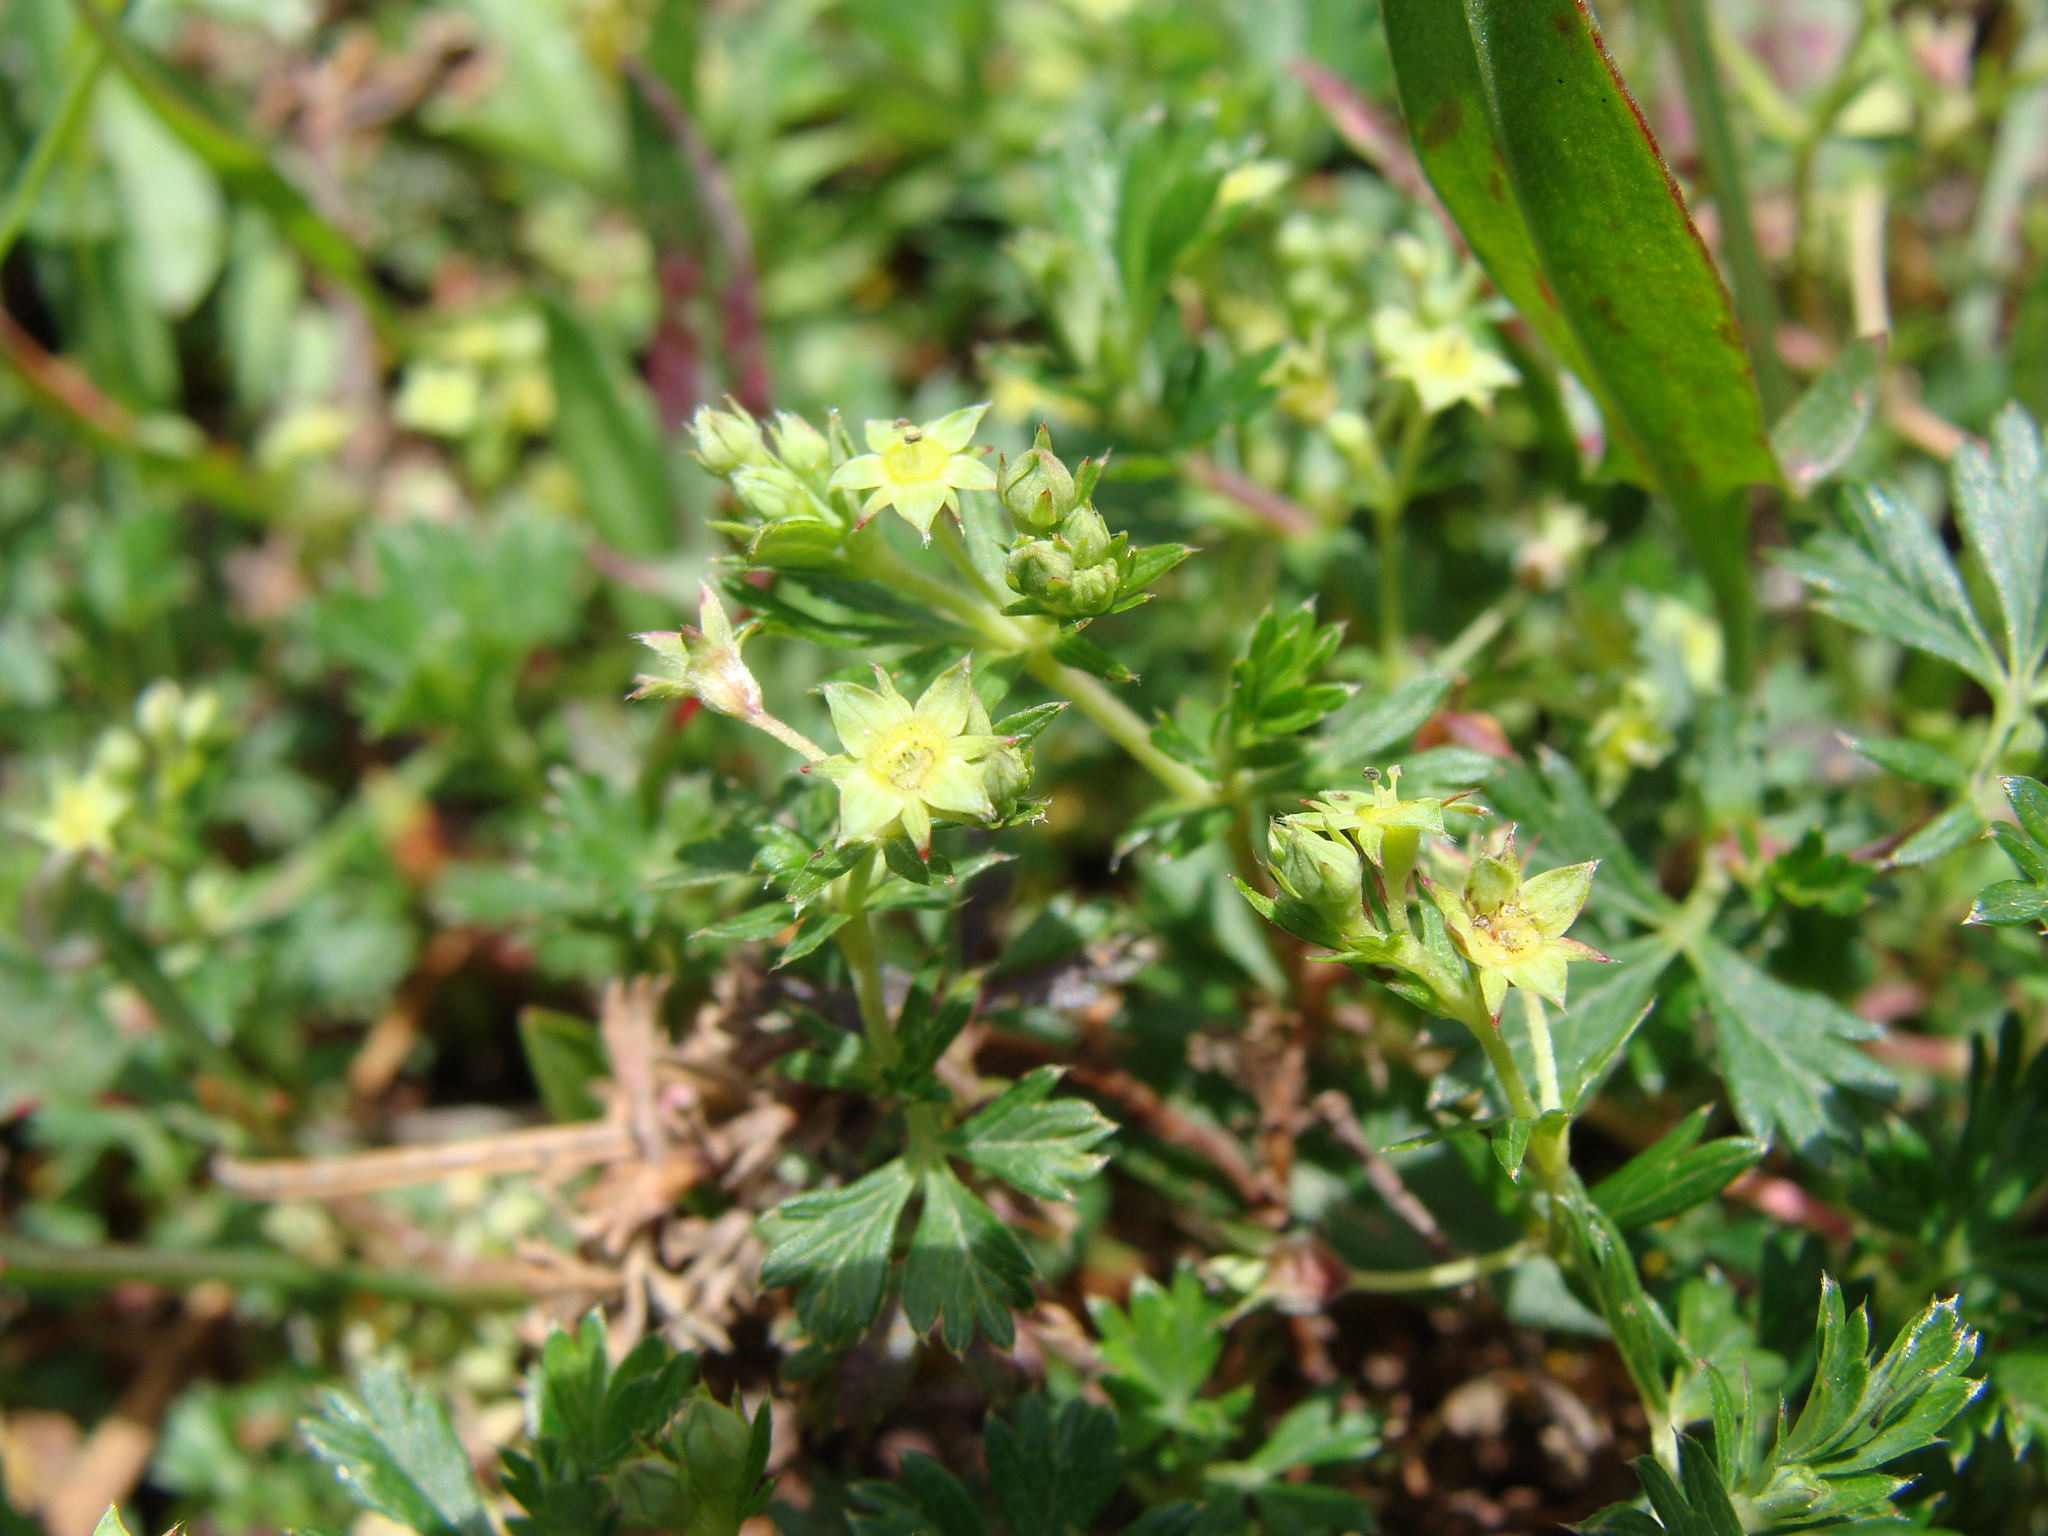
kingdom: Plantae
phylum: Tracheophyta
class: Magnoliopsida
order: Rosales
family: Rosaceae
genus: Lachemilla
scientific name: Lachemilla procumbens
